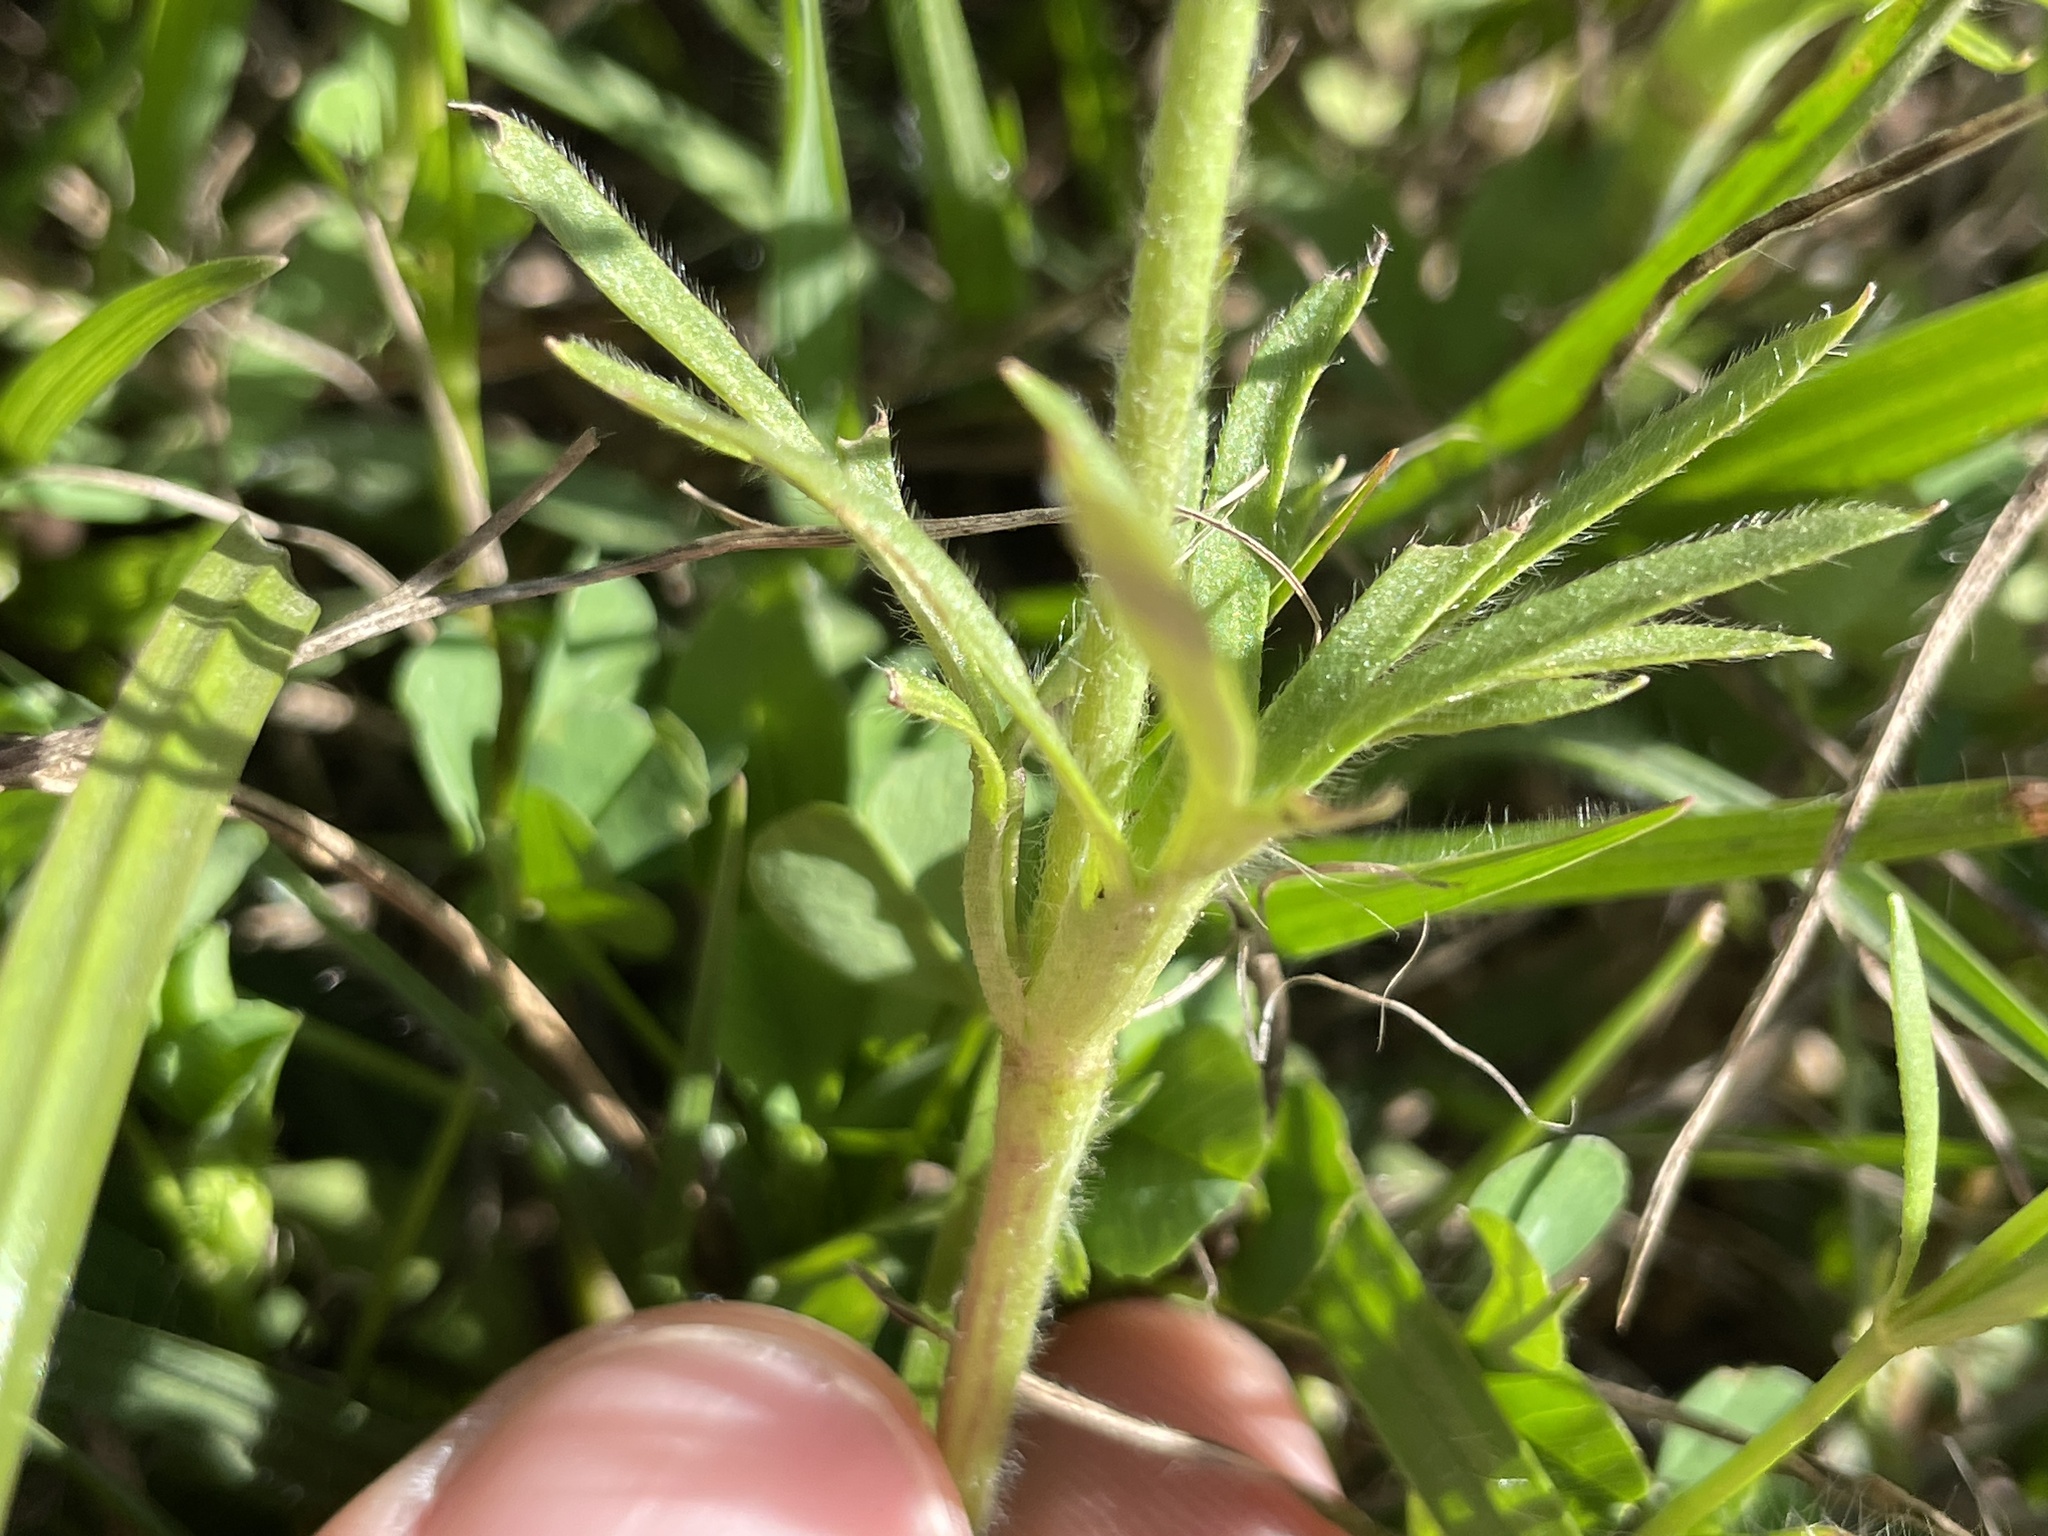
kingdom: Plantae
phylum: Tracheophyta
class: Magnoliopsida
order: Ranunculales
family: Ranunculaceae
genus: Anemone
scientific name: Anemone berlandieri
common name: Ten-petal anemone
